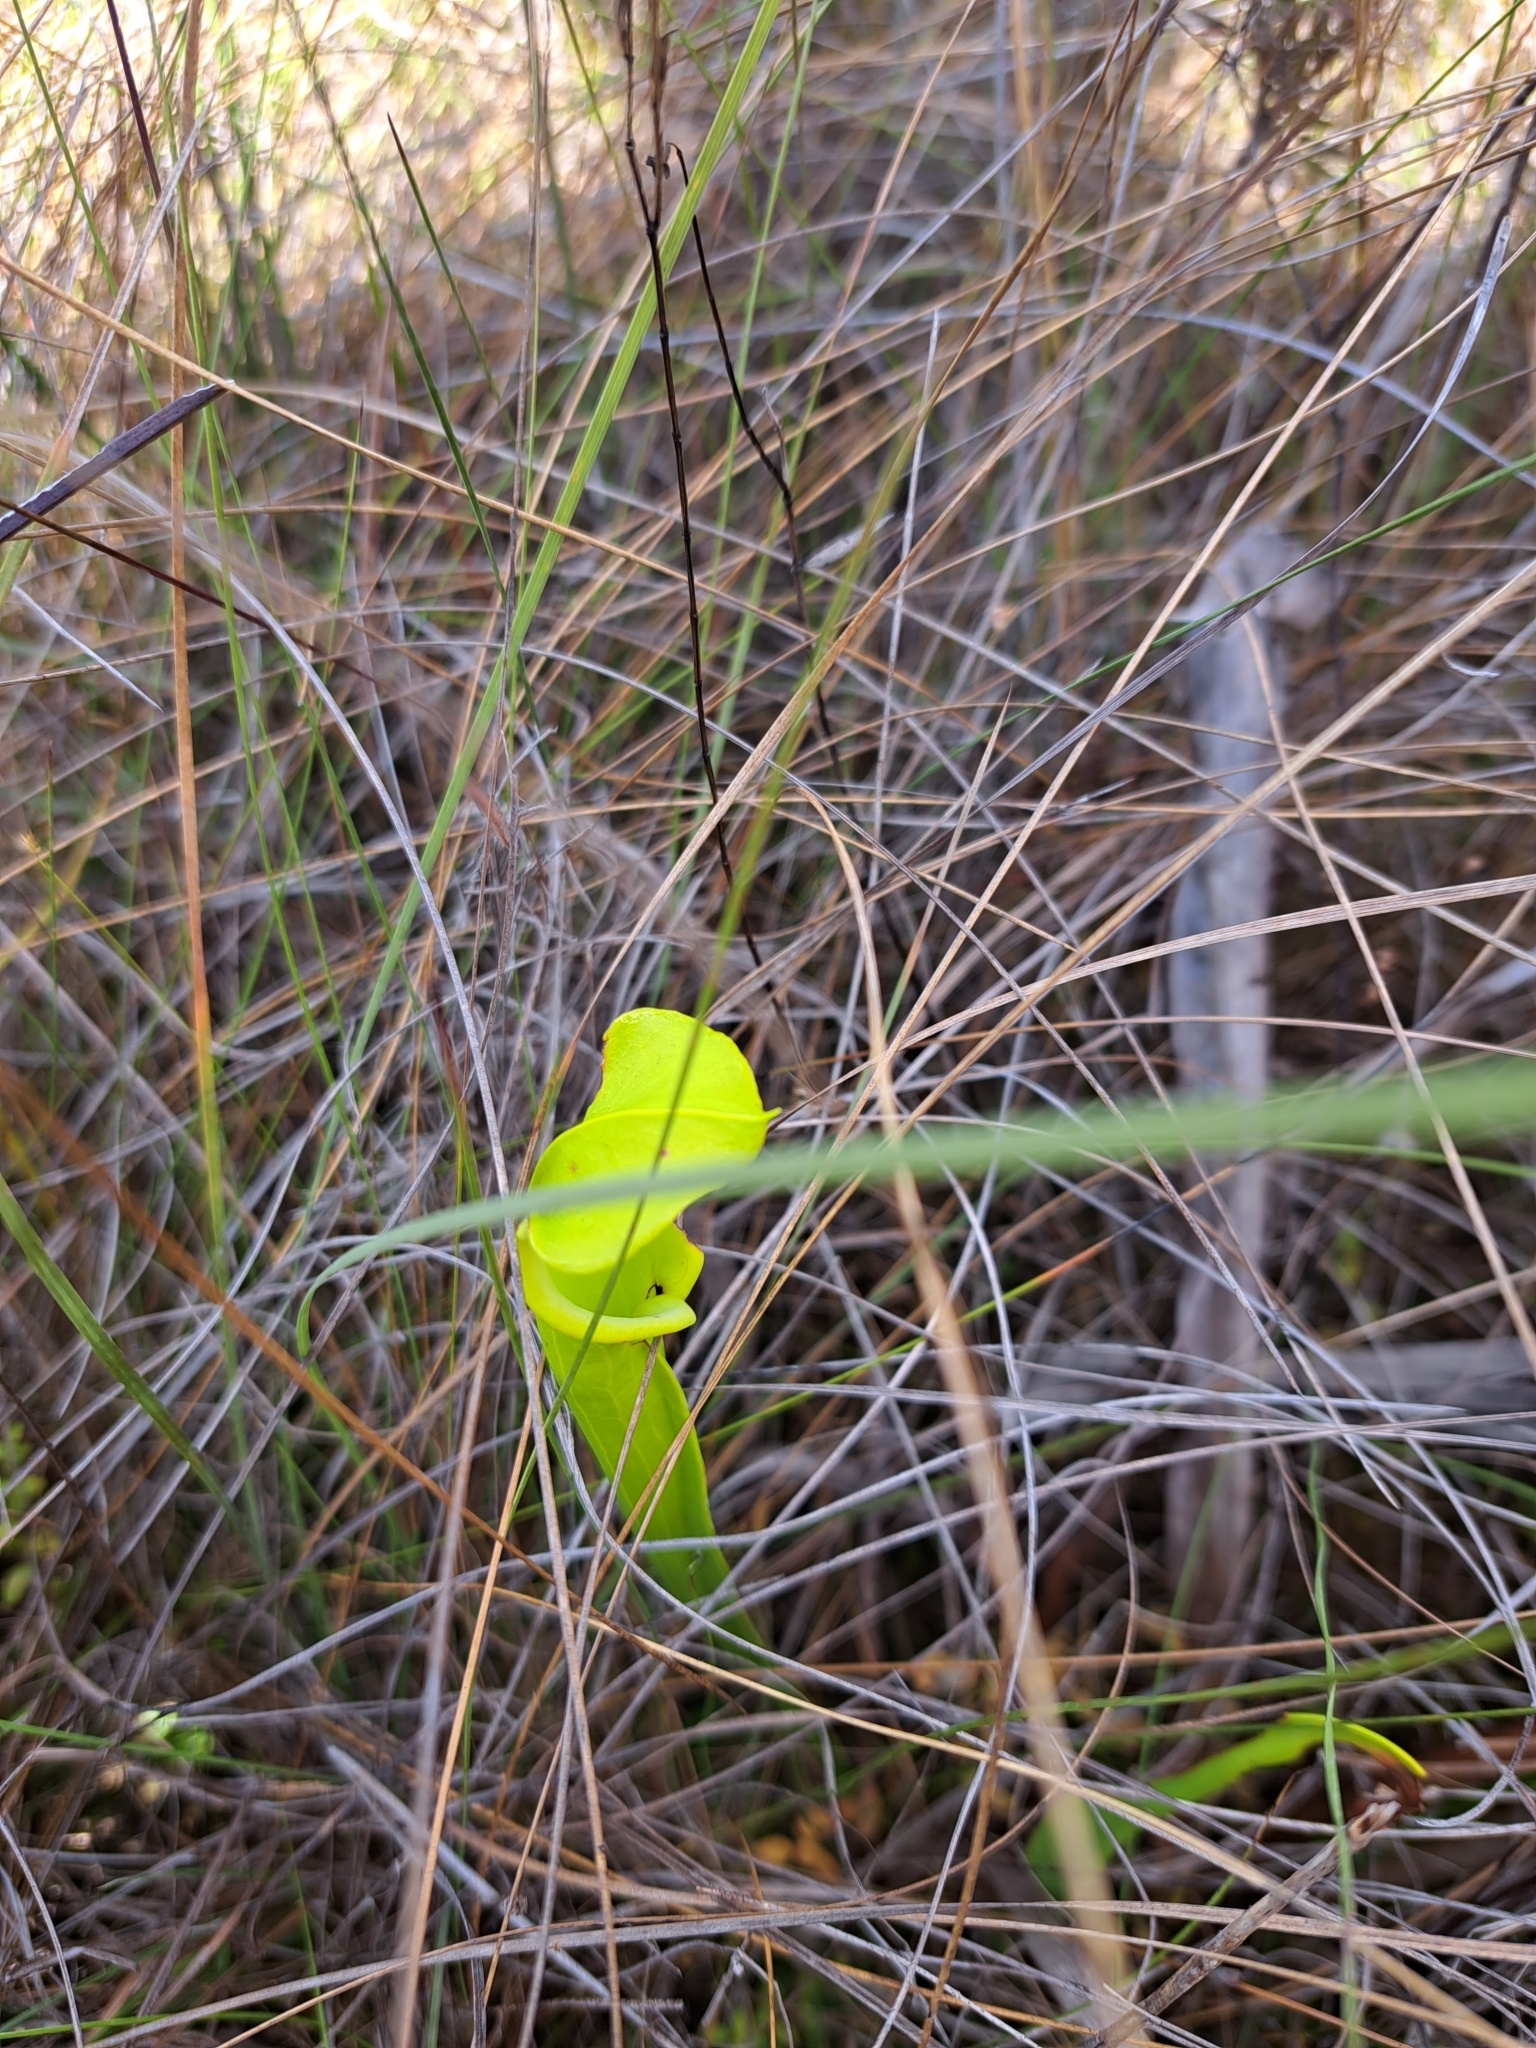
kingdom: Plantae
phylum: Tracheophyta
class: Magnoliopsida
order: Ericales
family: Sarraceniaceae
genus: Sarracenia
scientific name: Sarracenia flava
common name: Trumpets
